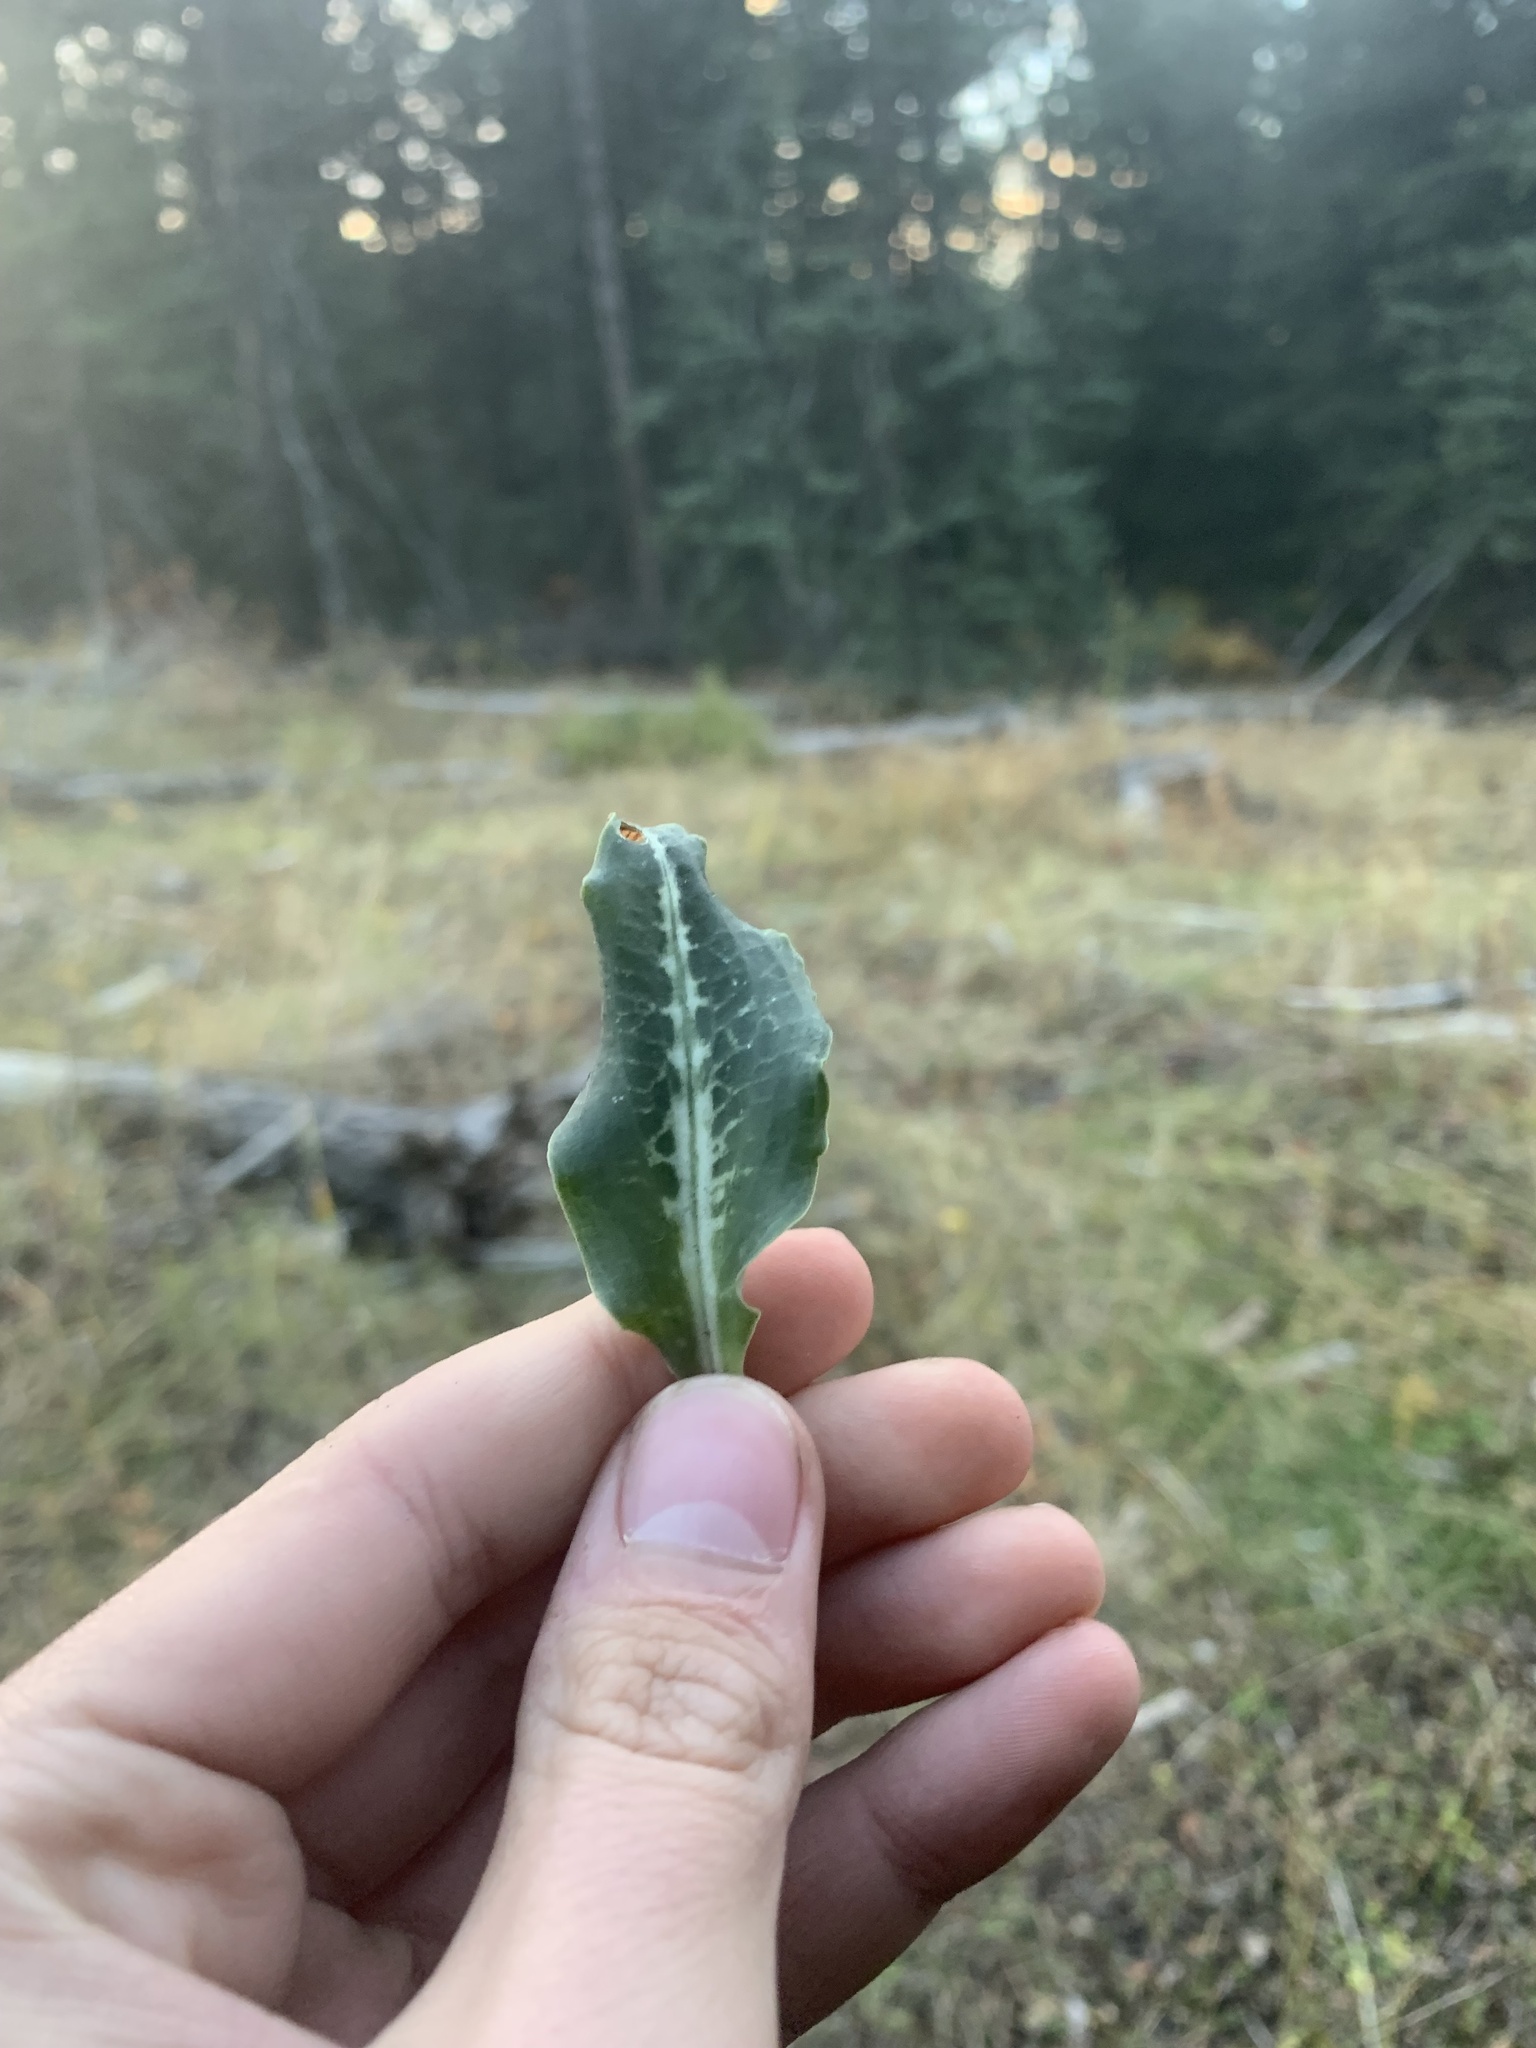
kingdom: Plantae
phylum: Tracheophyta
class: Liliopsida
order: Asparagales
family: Orchidaceae
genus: Goodyera
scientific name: Goodyera oblongifolia
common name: Giant rattlesnake-plantain
